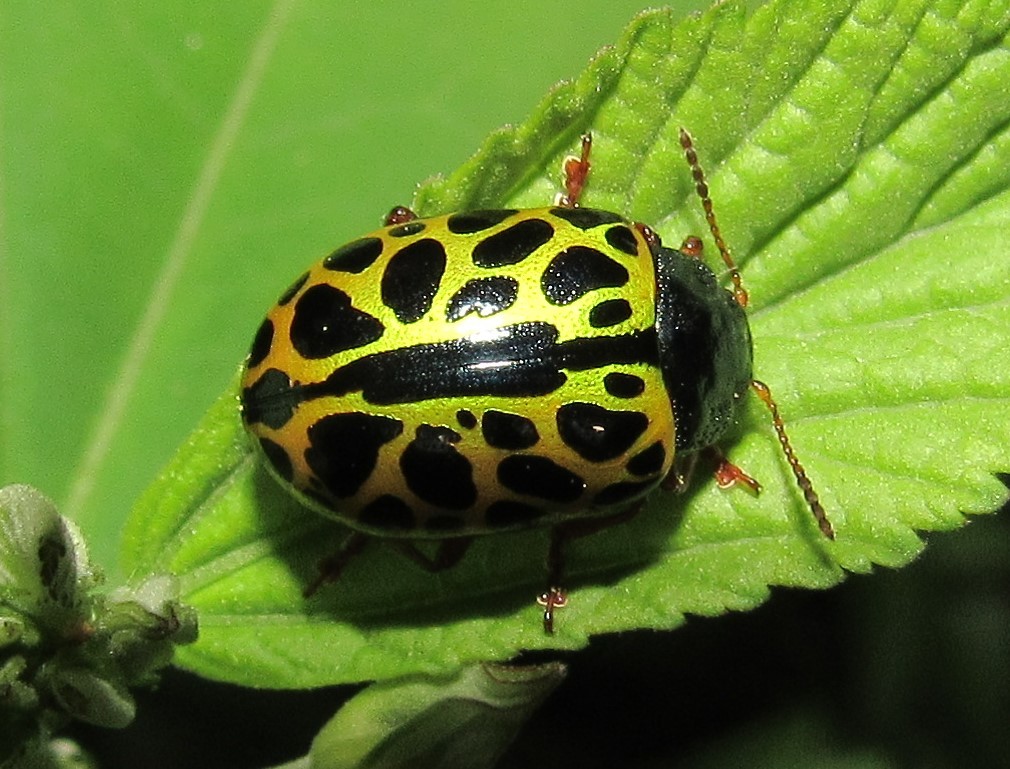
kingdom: Animalia
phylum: Arthropoda
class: Insecta
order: Coleoptera
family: Chrysomelidae
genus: Calligrapha
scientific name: Calligrapha polyspila
